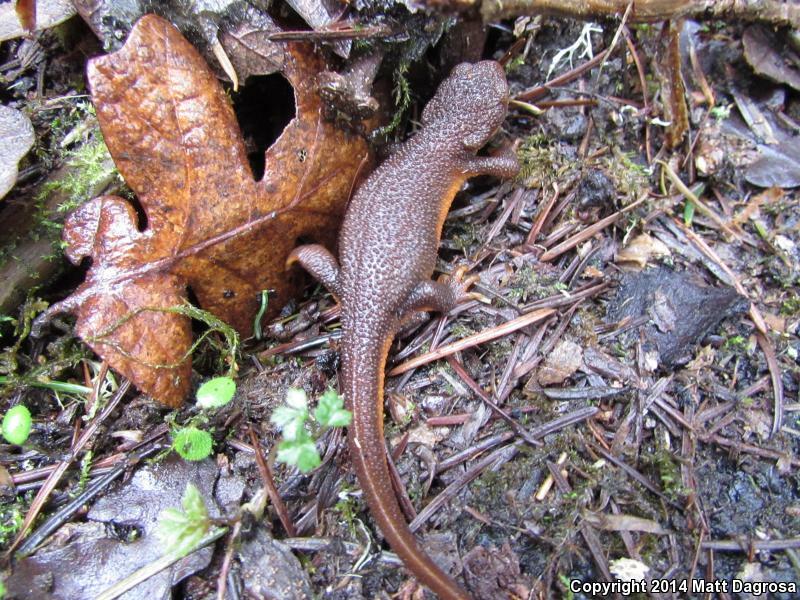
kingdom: Animalia
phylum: Chordata
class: Amphibia
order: Caudata
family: Salamandridae
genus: Taricha
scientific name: Taricha granulosa
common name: Roughskin newt
